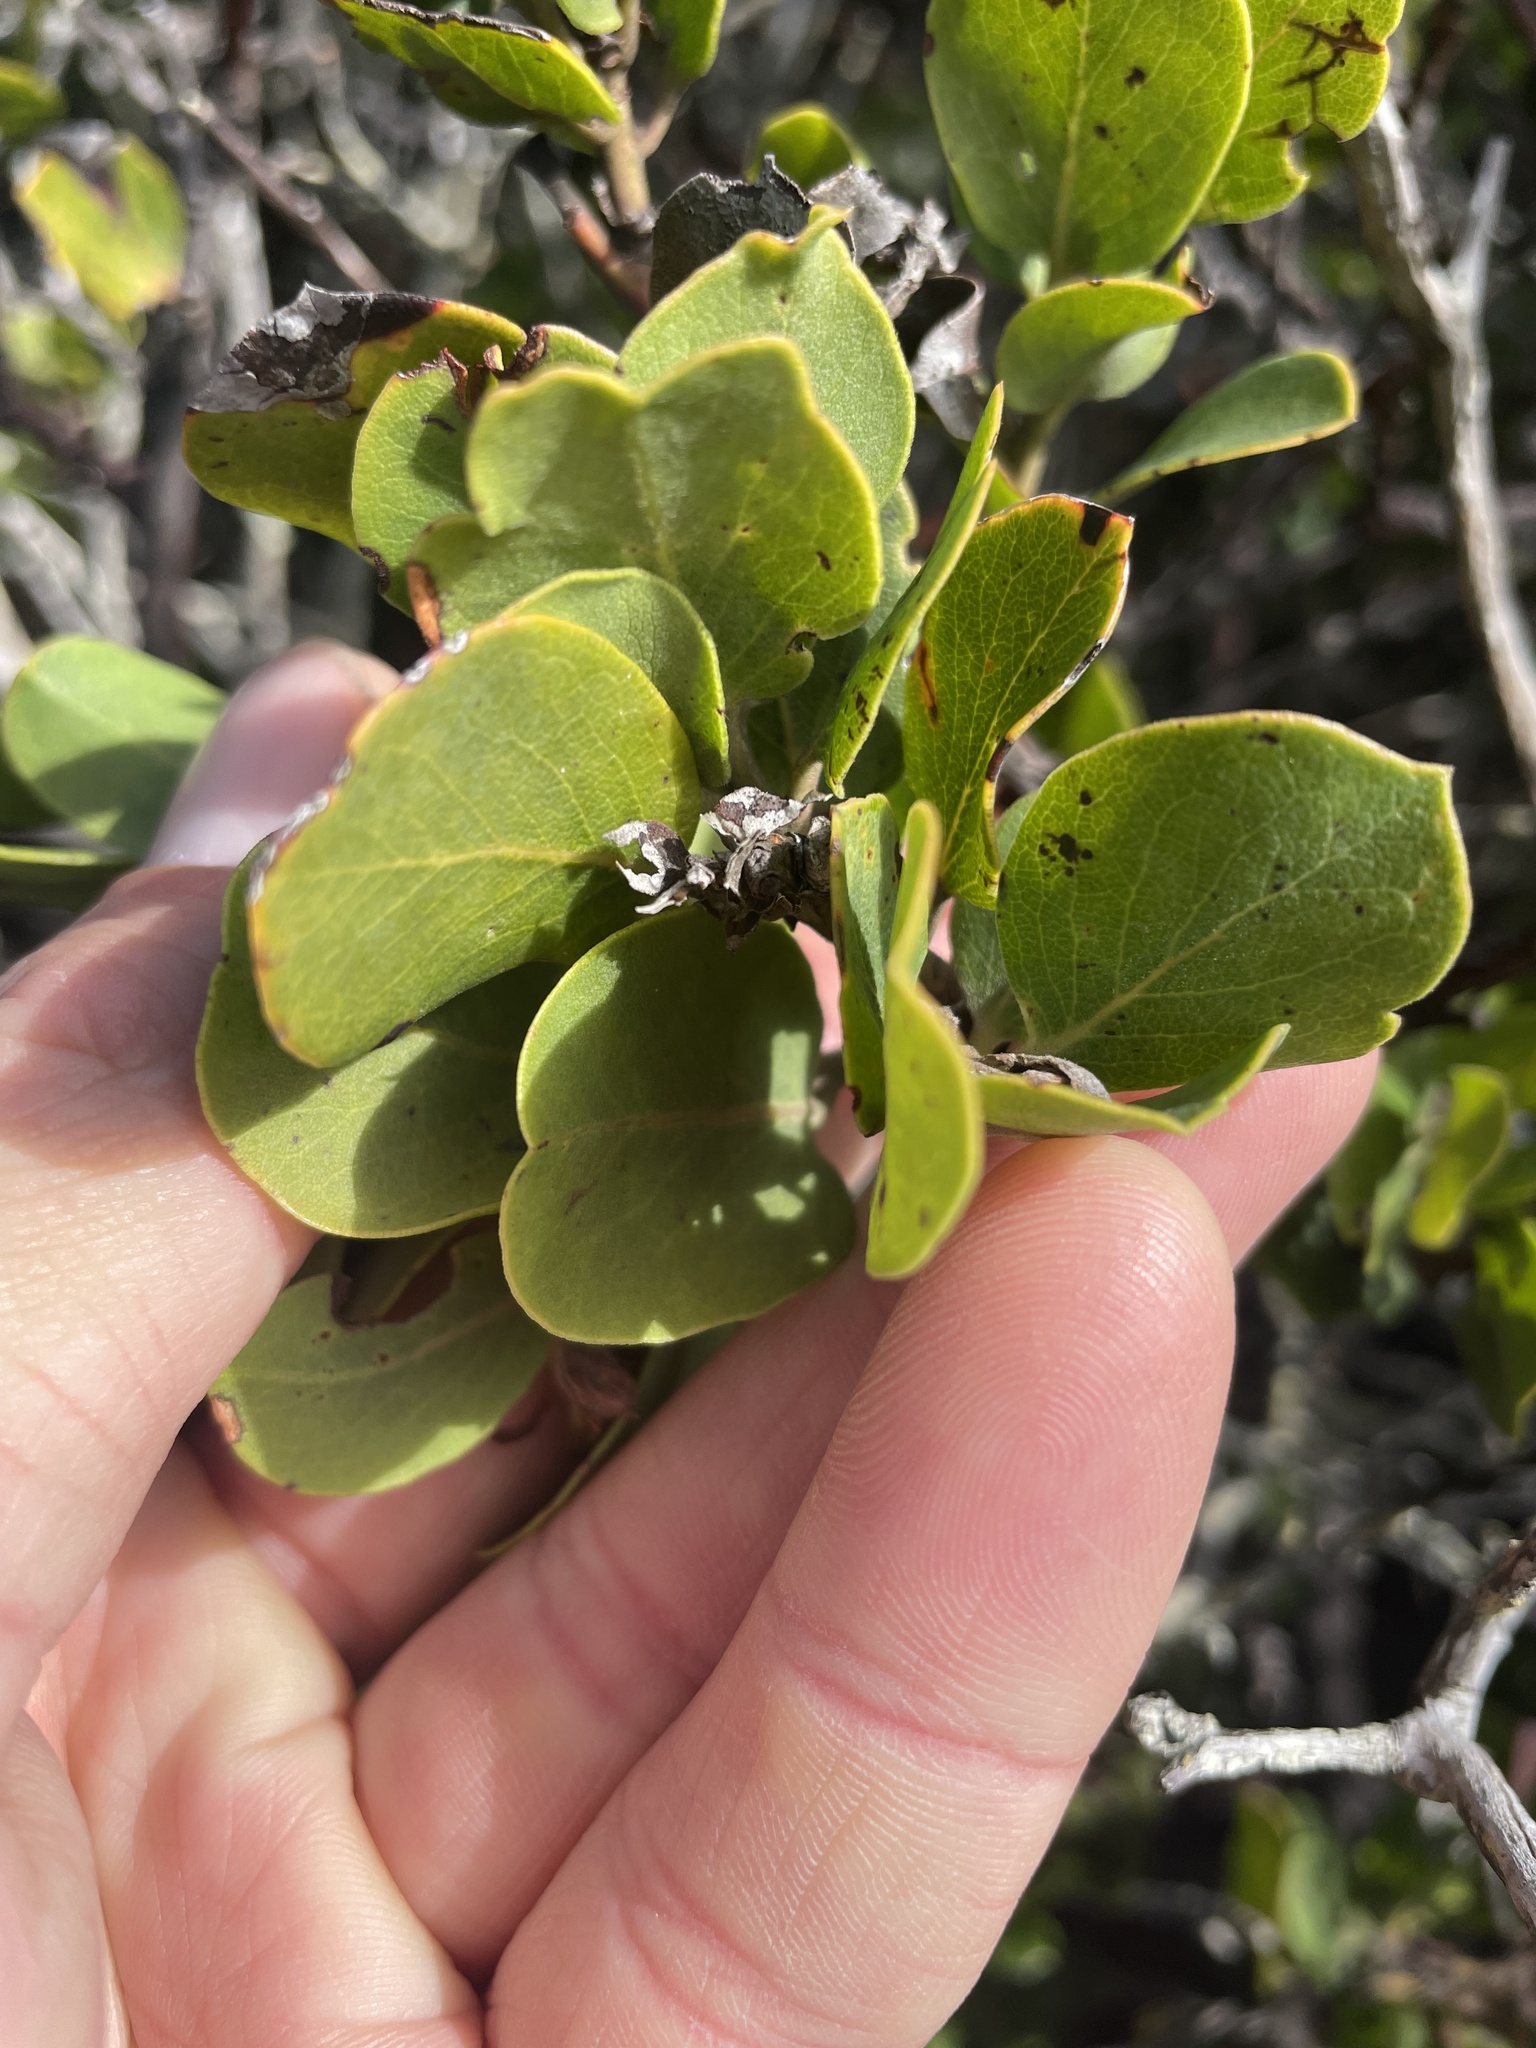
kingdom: Plantae
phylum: Tracheophyta
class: Magnoliopsida
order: Ericales
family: Ericaceae
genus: Arctostaphylos
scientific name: Arctostaphylos crustacea
